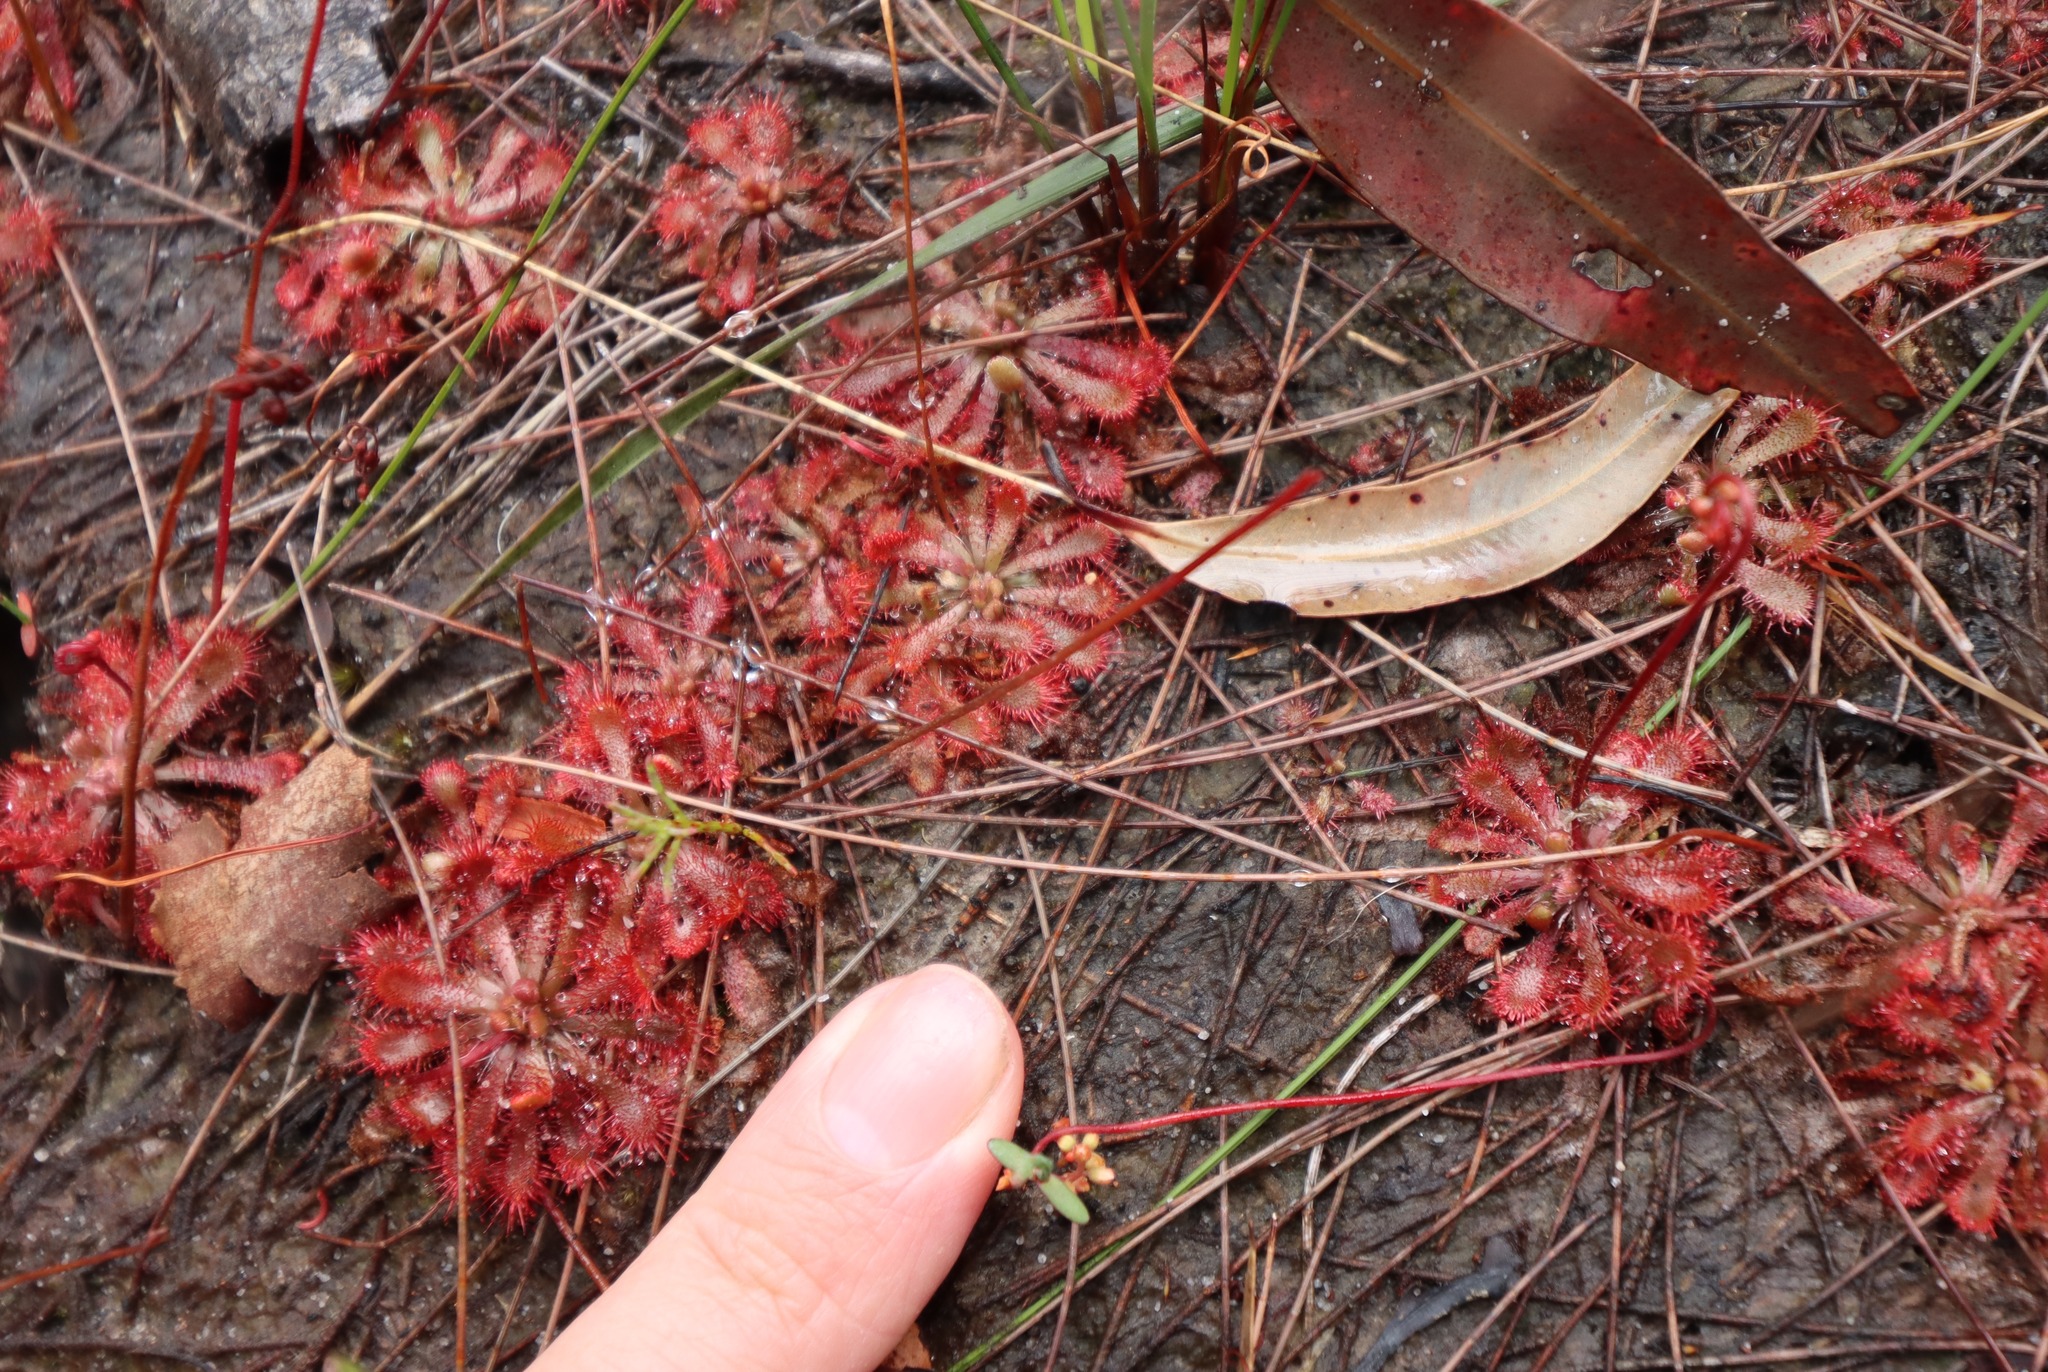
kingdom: Plantae
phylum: Tracheophyta
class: Magnoliopsida
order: Caryophyllales
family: Droseraceae
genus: Drosera
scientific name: Drosera spatulata
